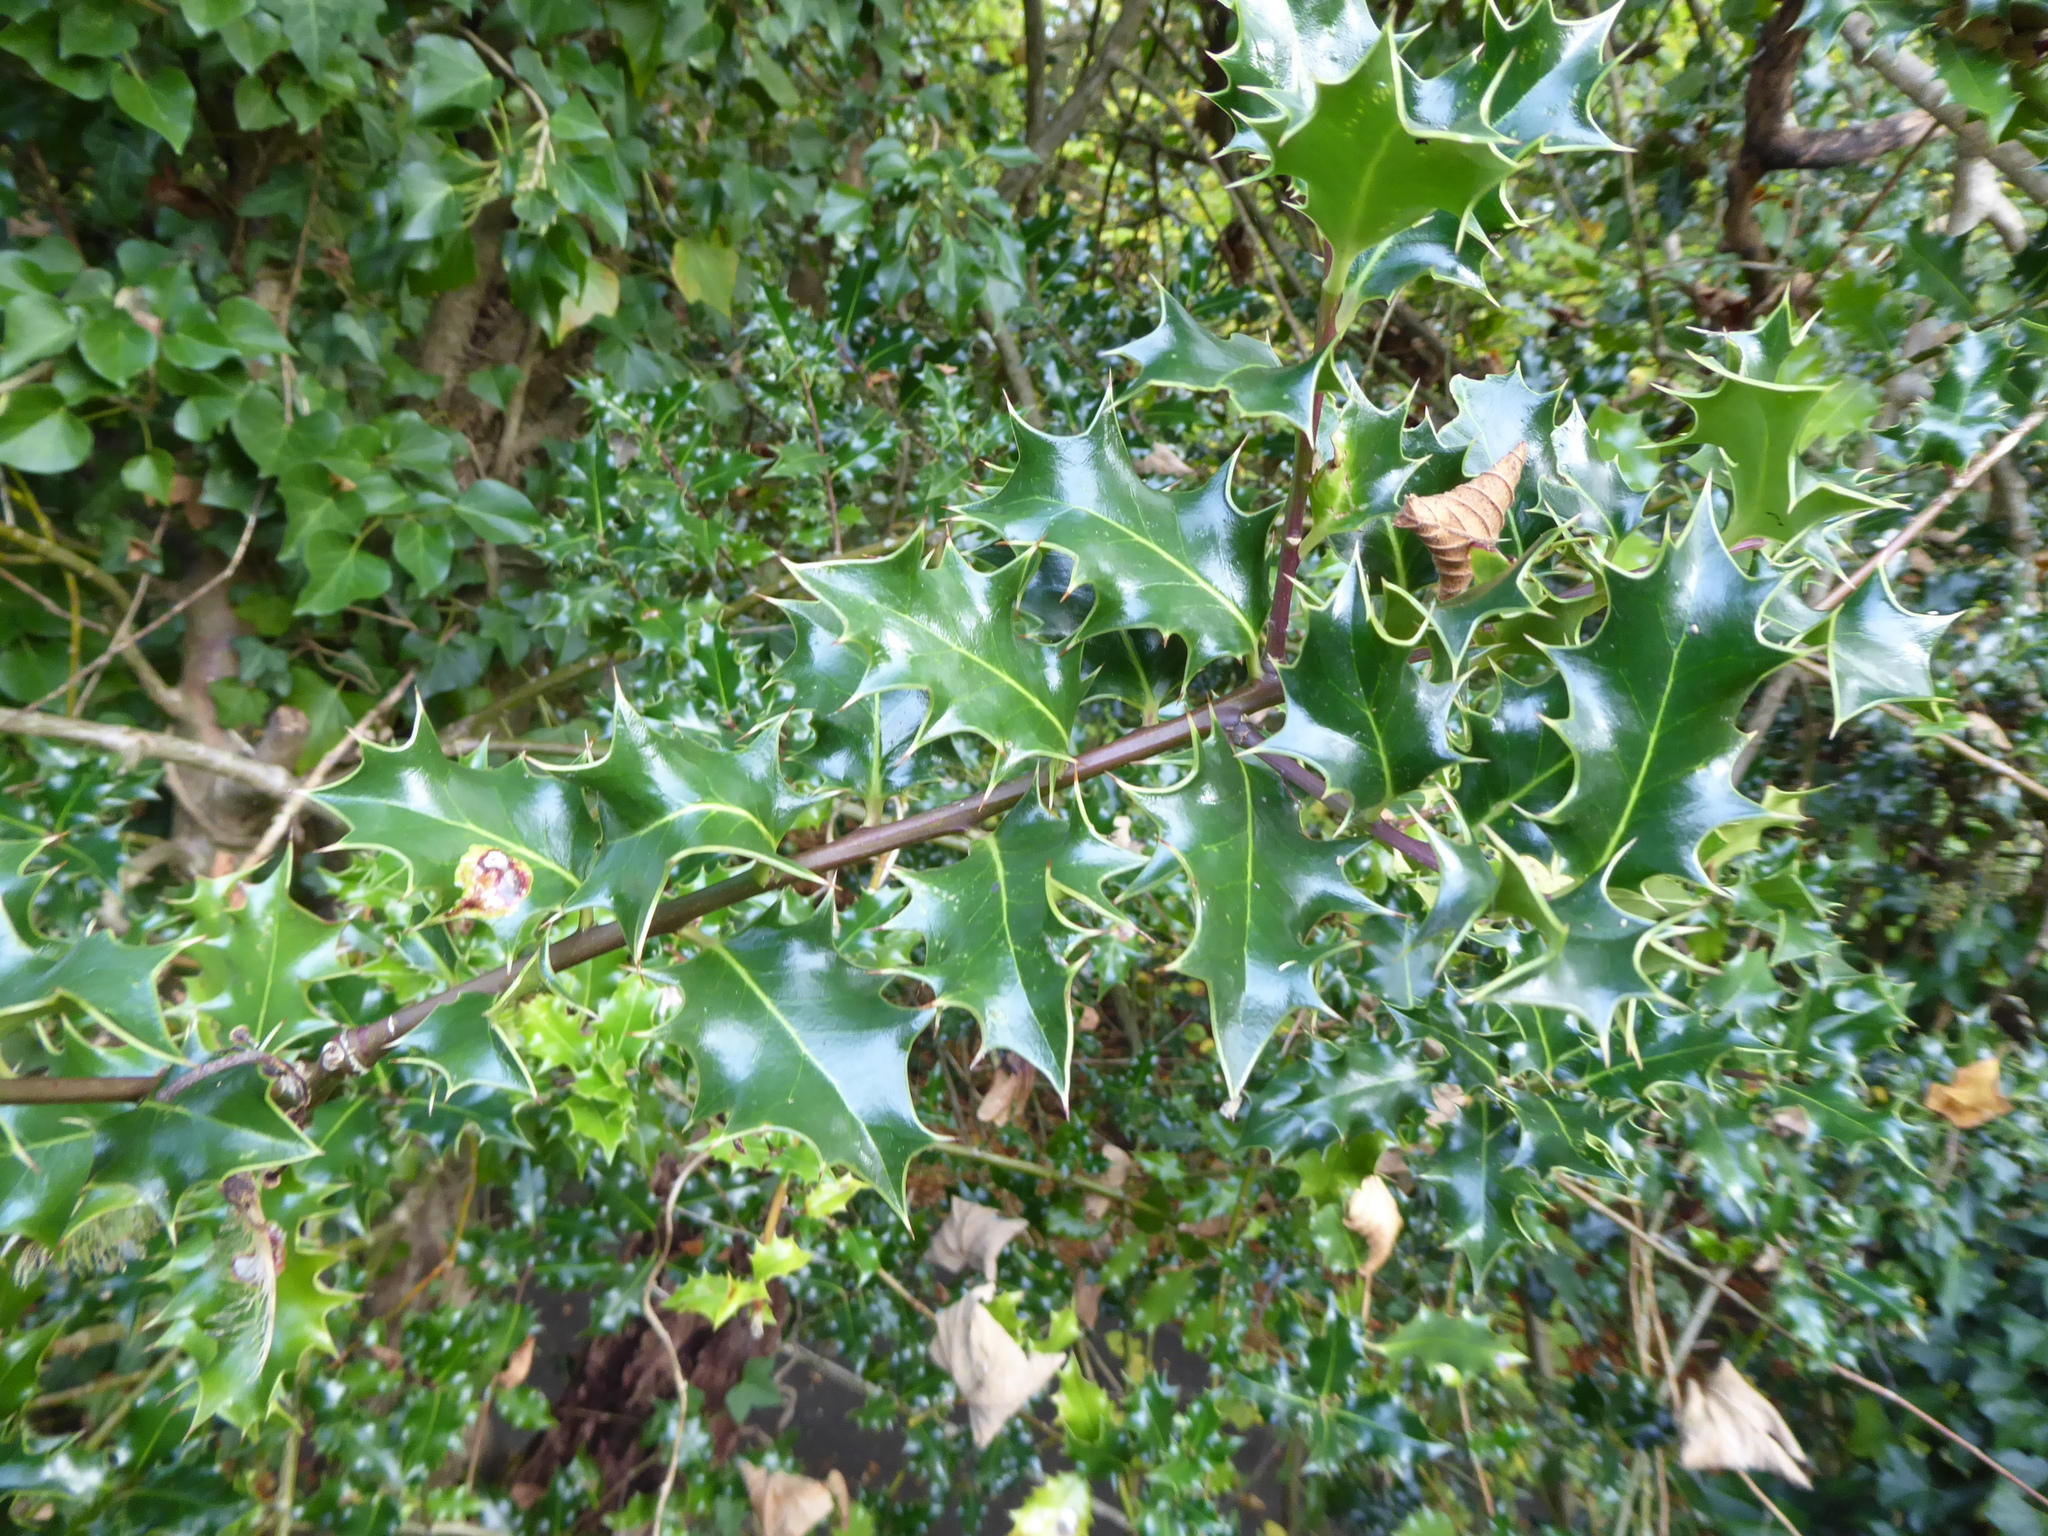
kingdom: Plantae
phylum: Tracheophyta
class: Magnoliopsida
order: Aquifoliales
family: Aquifoliaceae
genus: Ilex
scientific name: Ilex aquifolium
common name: English holly
